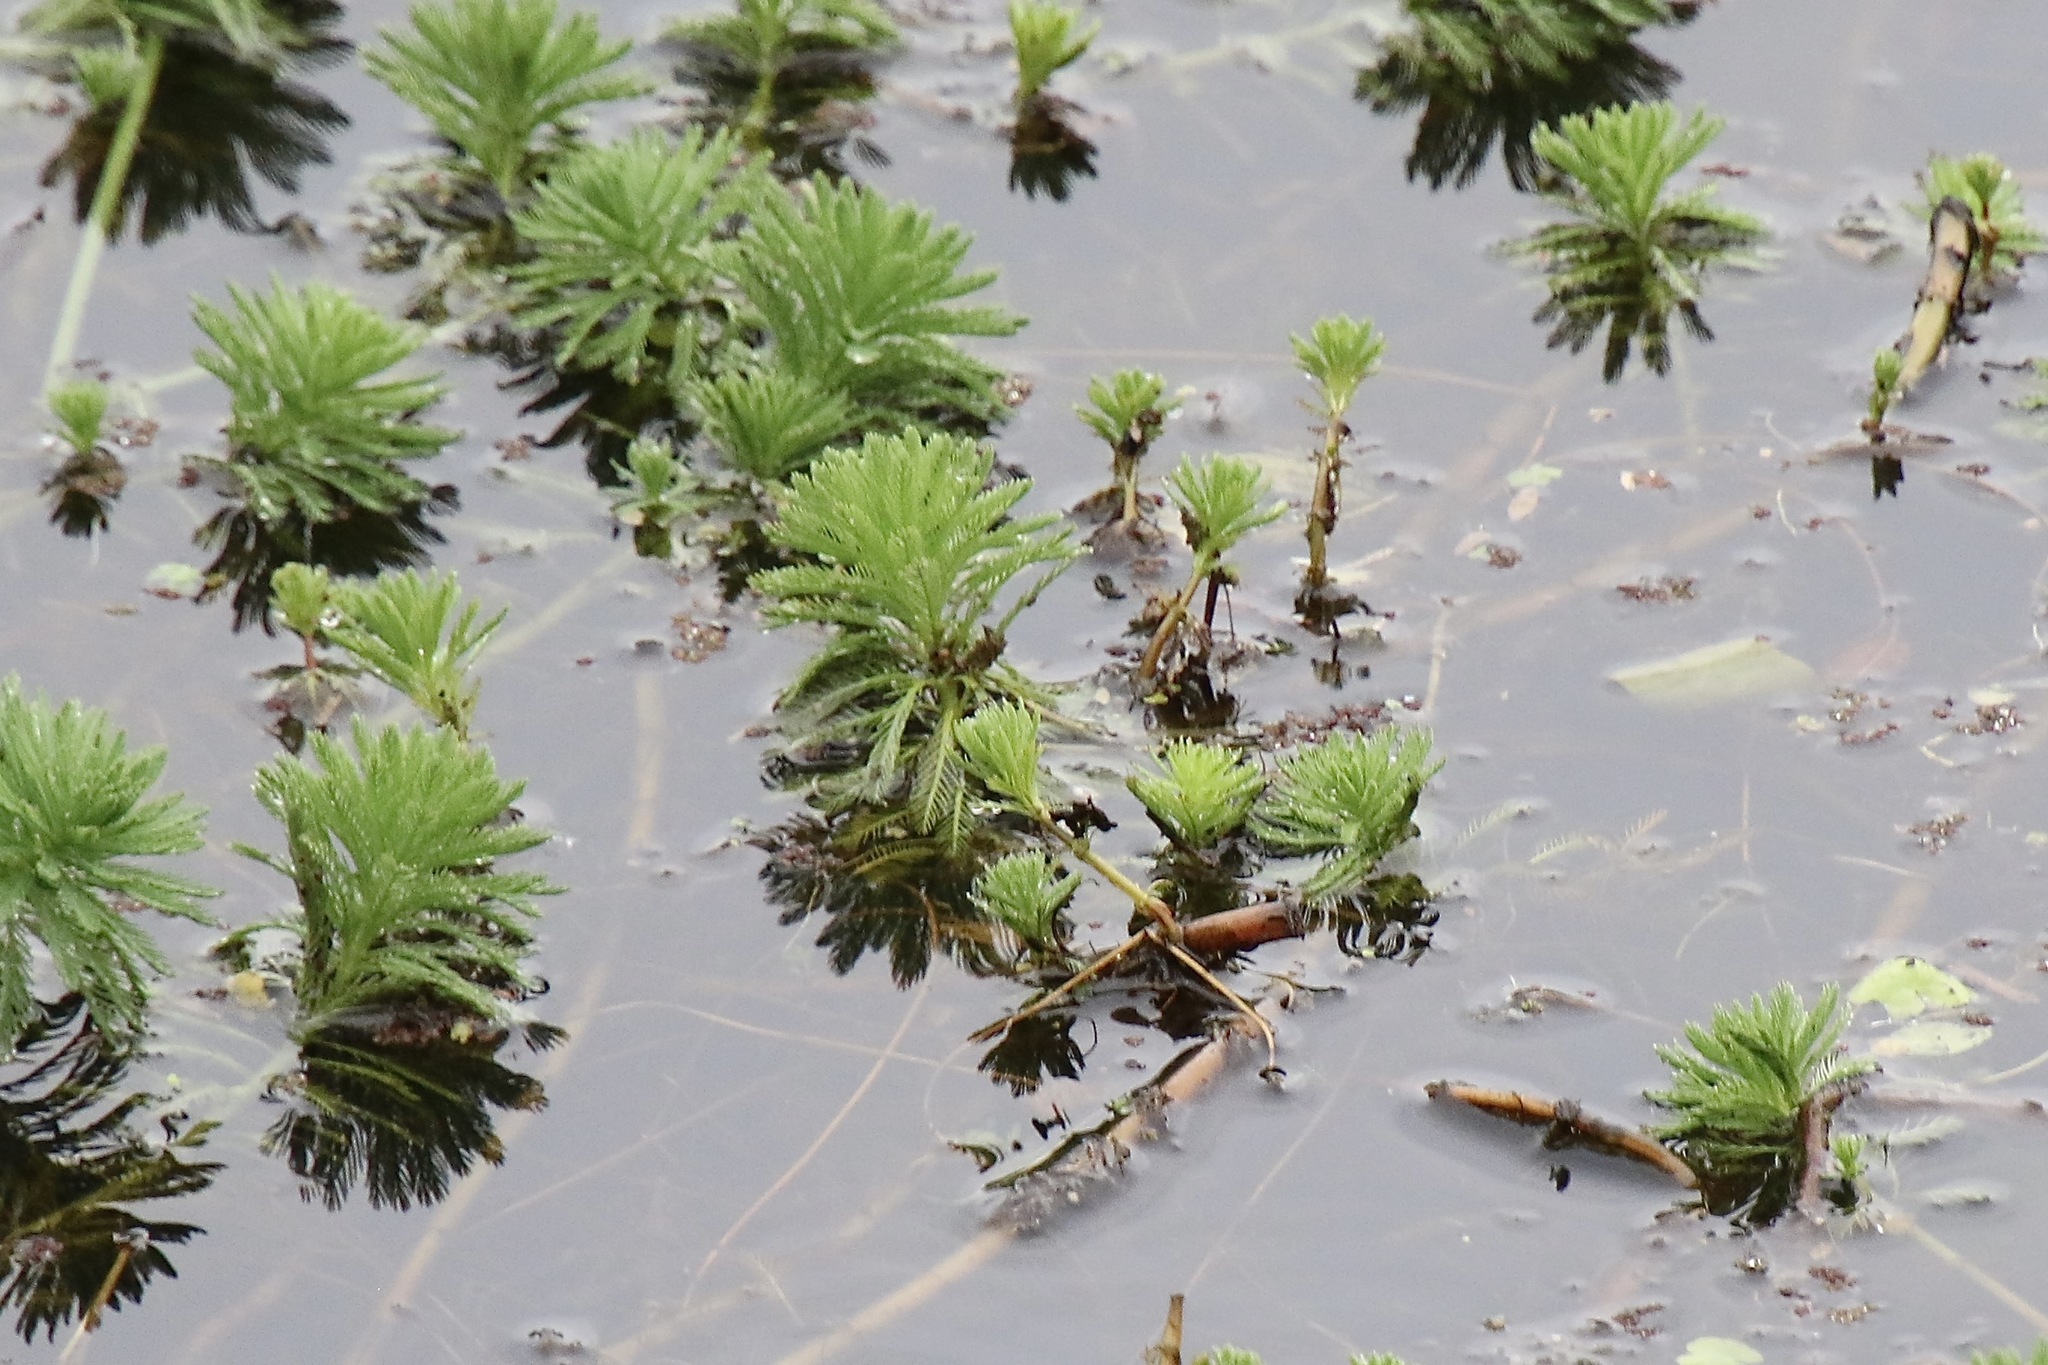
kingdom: Plantae
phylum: Tracheophyta
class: Magnoliopsida
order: Saxifragales
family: Haloragaceae
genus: Myriophyllum
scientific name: Myriophyllum aquaticum
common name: Parrot's feather
